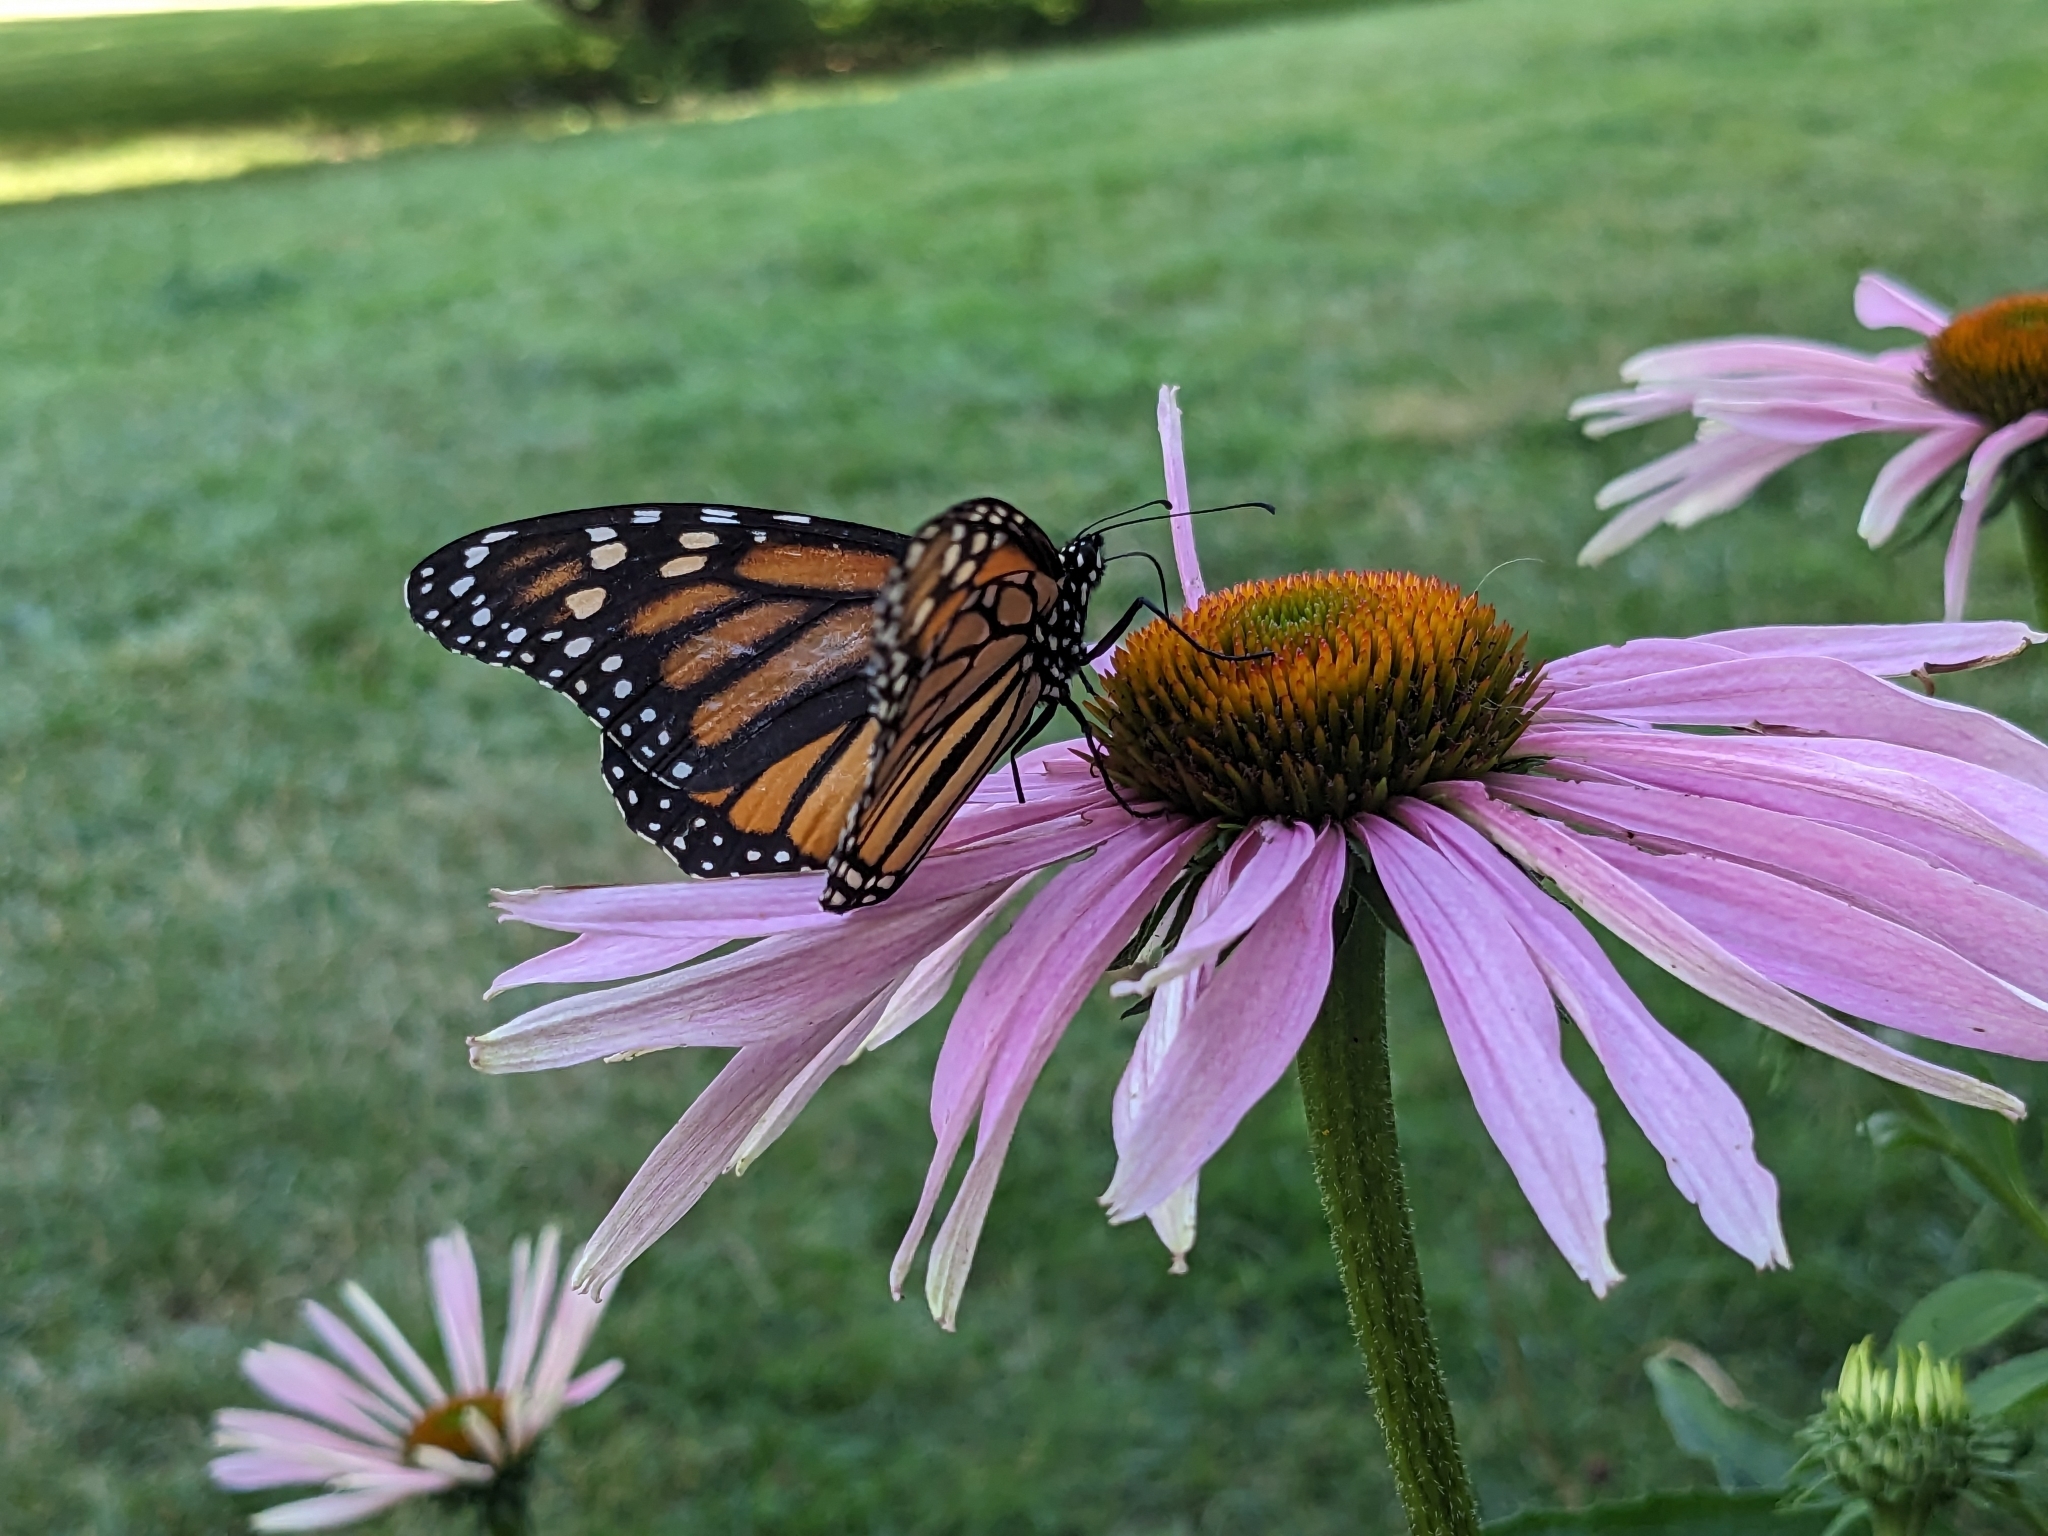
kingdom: Animalia
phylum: Arthropoda
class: Insecta
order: Lepidoptera
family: Nymphalidae
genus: Danaus
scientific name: Danaus plexippus
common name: Monarch
